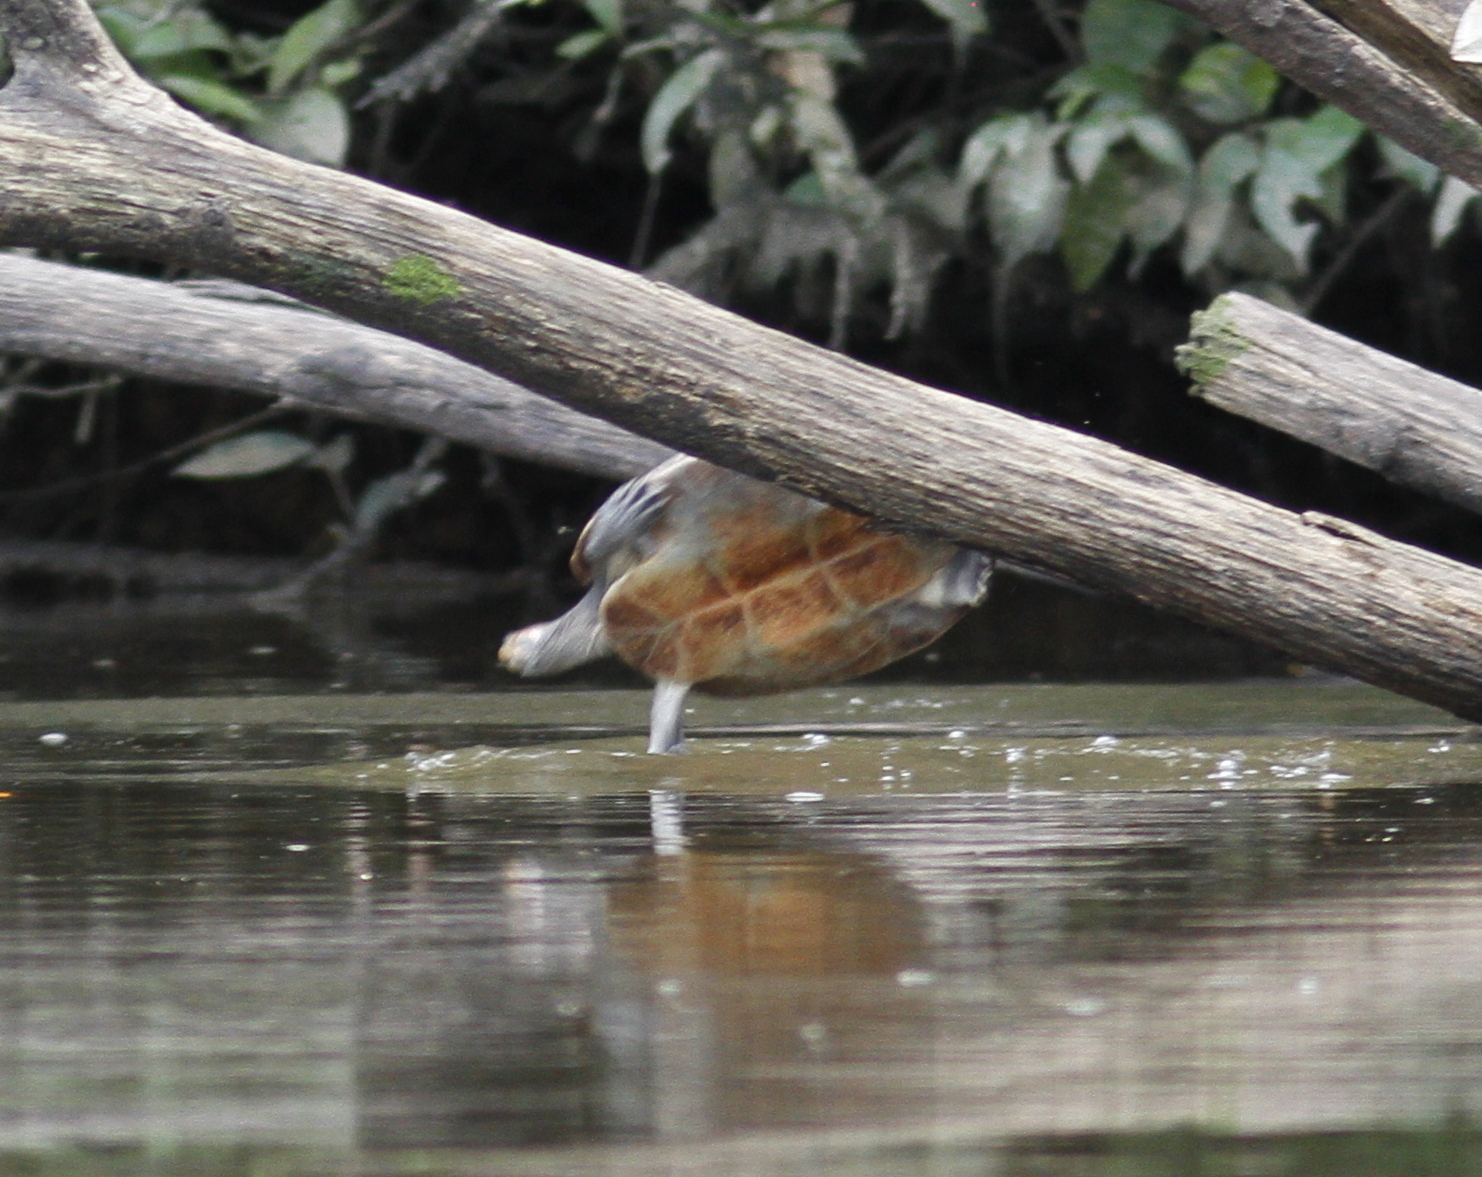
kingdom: Animalia
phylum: Chordata
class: Testudines
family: Podocnemididae
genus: Podocnemis
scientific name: Podocnemis unifilis
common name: Yellow-spotted amazon river turtle
